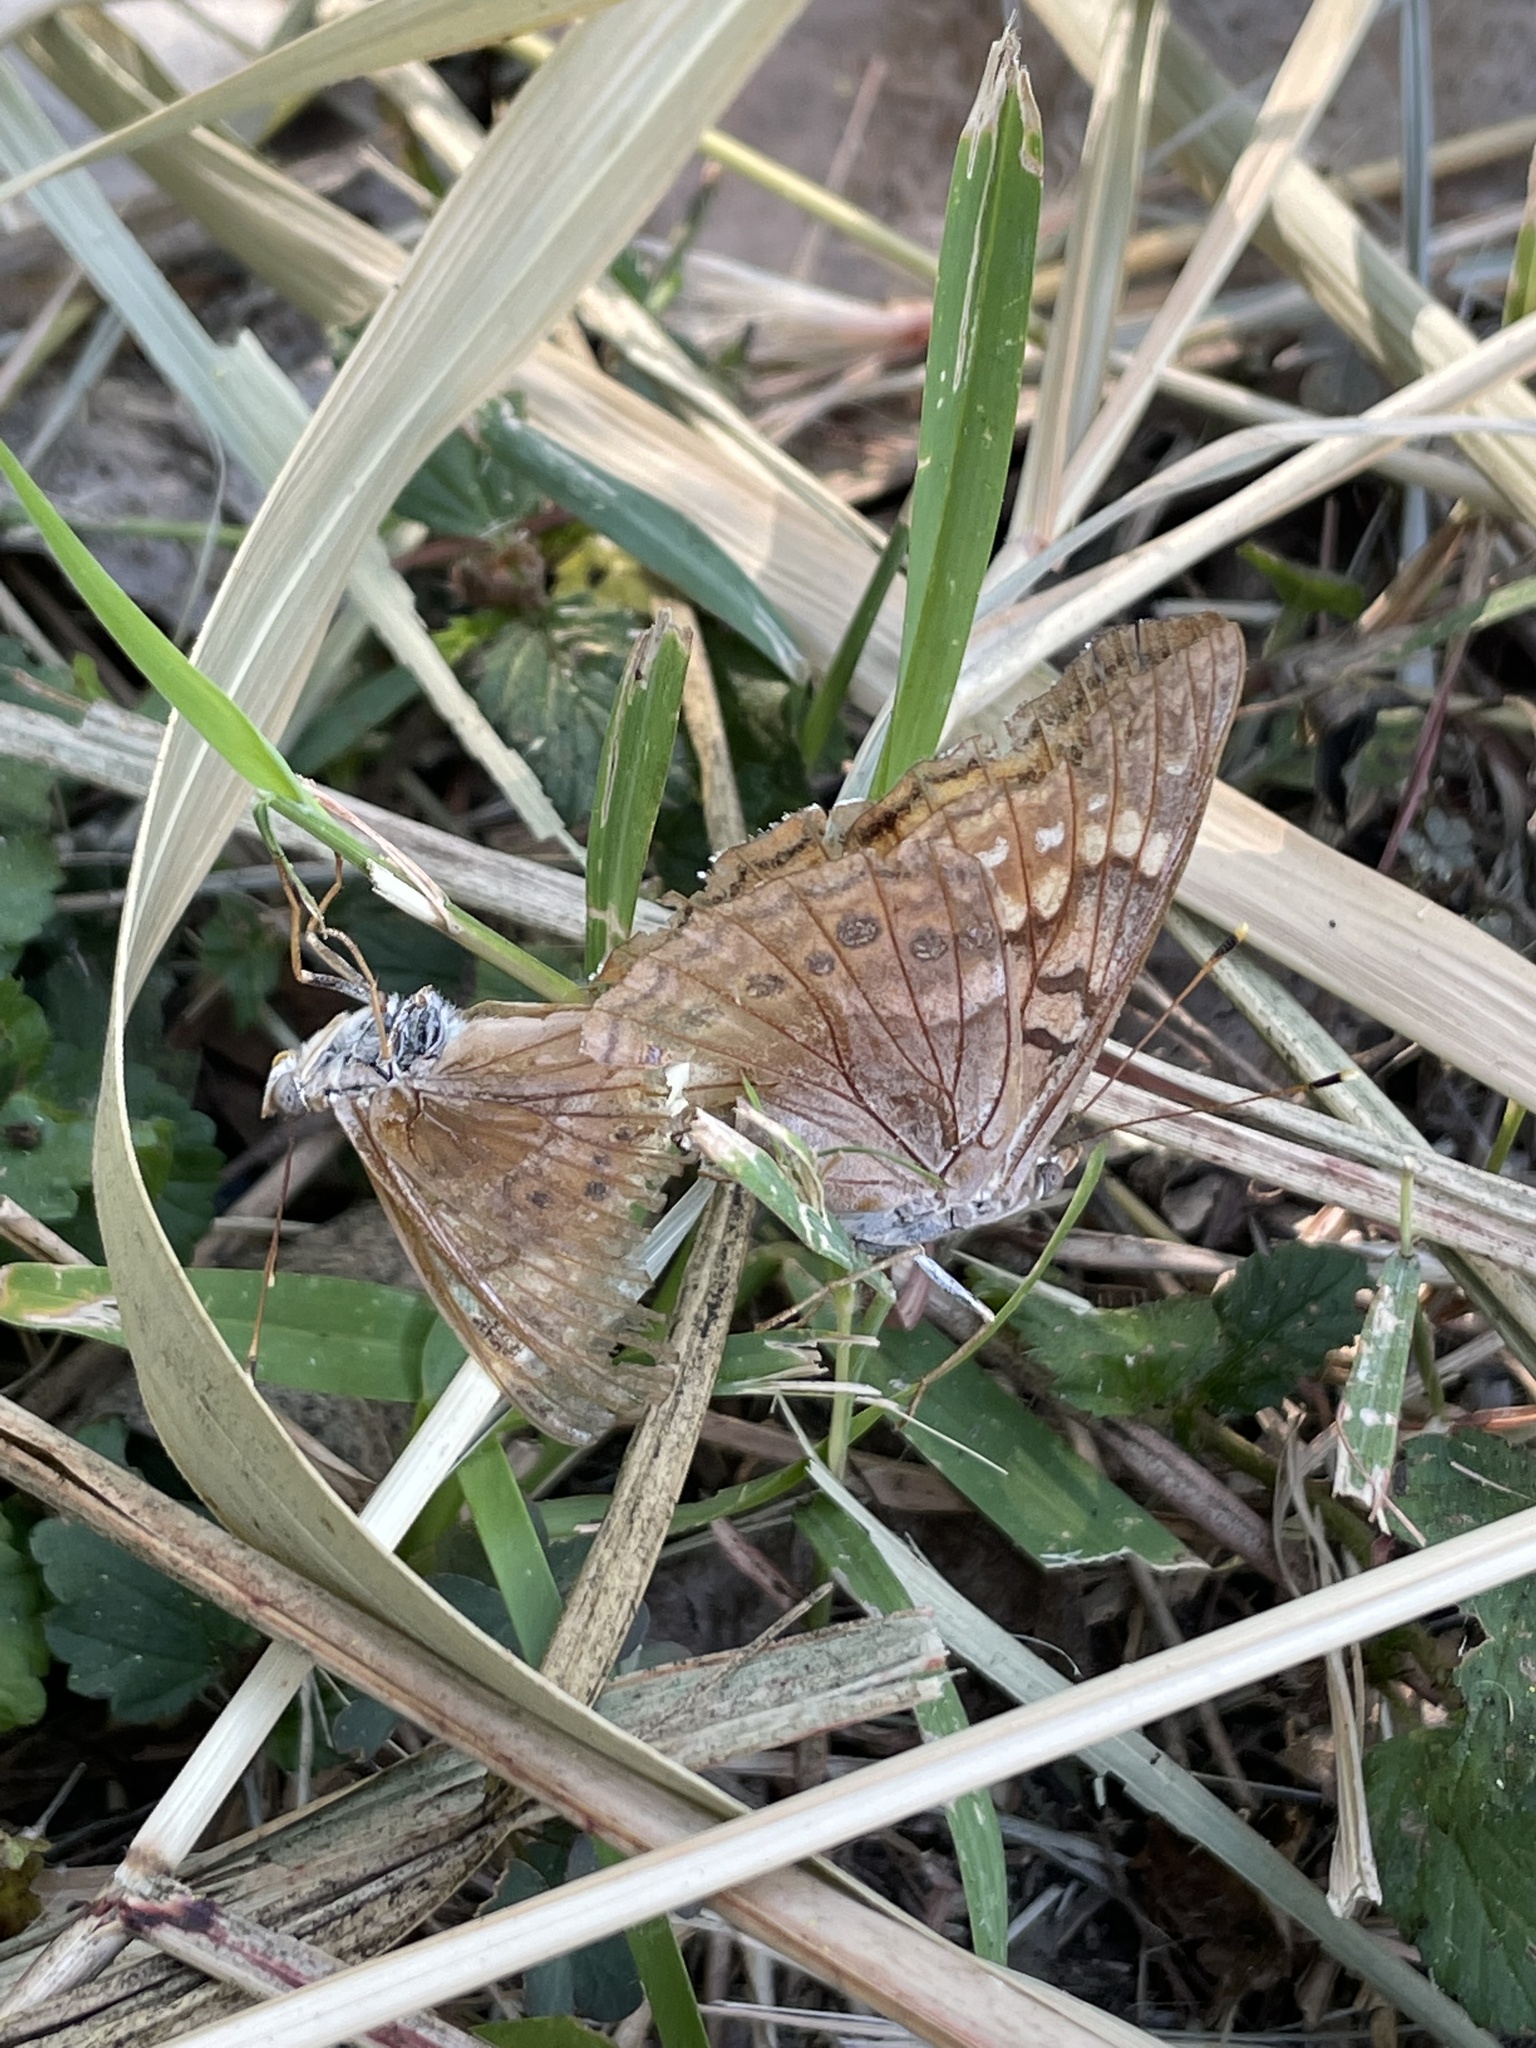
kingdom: Animalia
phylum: Arthropoda
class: Insecta
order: Lepidoptera
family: Nymphalidae
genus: Asterocampa
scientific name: Asterocampa clyton
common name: Tawny emperor
